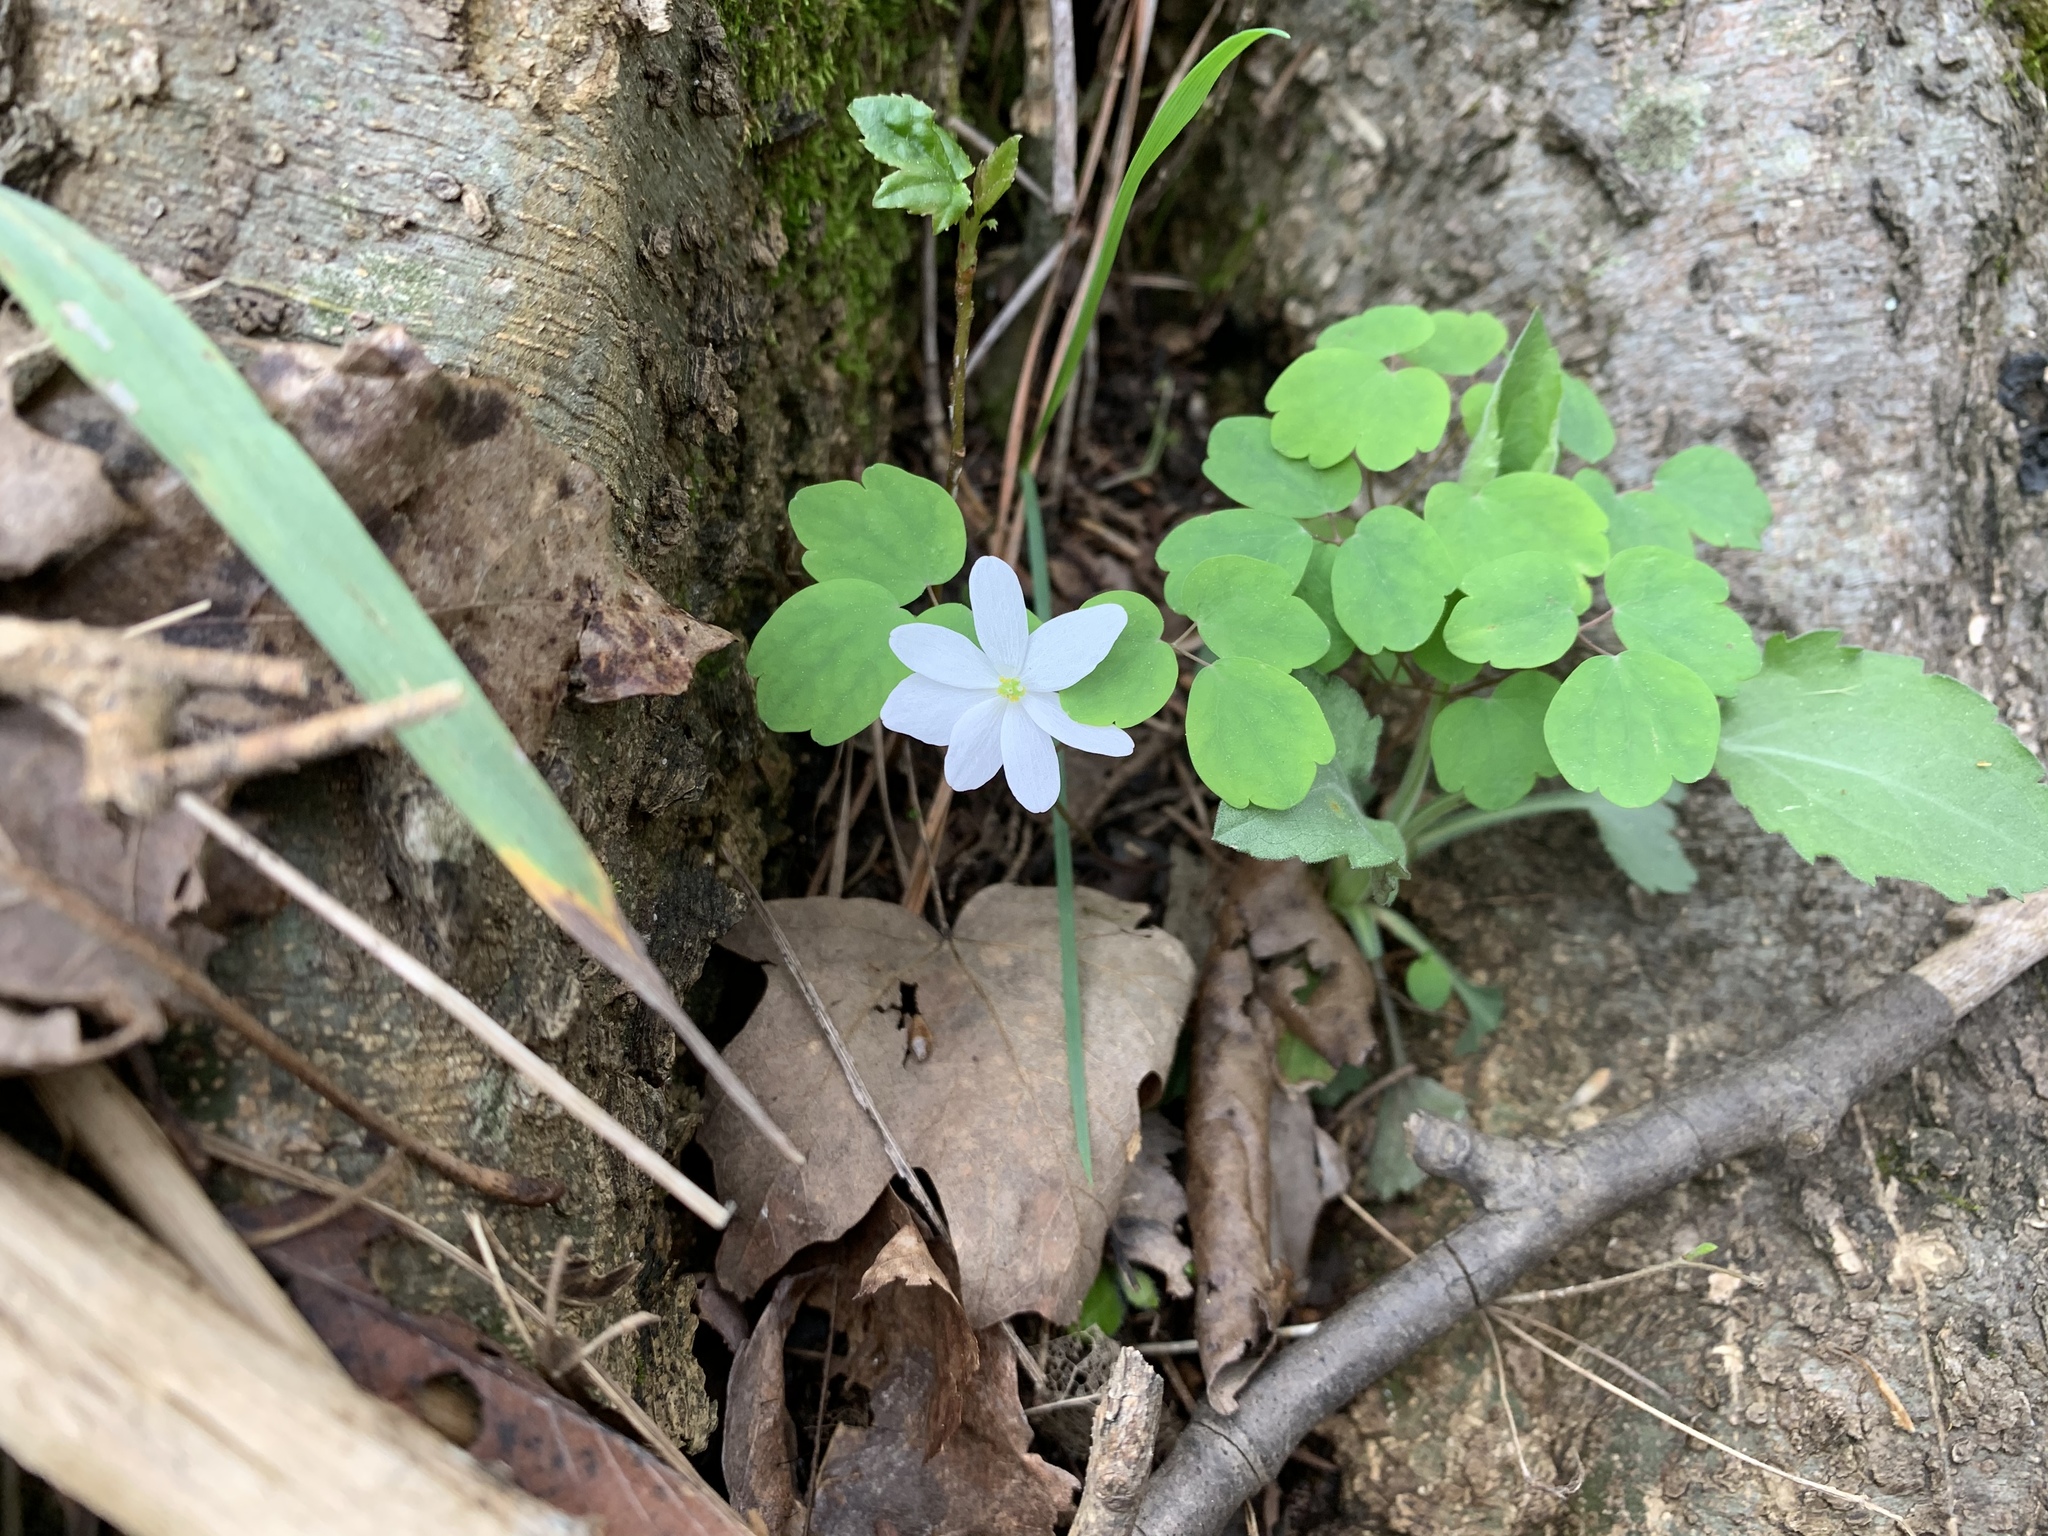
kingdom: Plantae
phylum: Tracheophyta
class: Magnoliopsida
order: Ranunculales
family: Ranunculaceae
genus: Thalictrum
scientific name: Thalictrum thalictroides
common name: Rue-anemone
